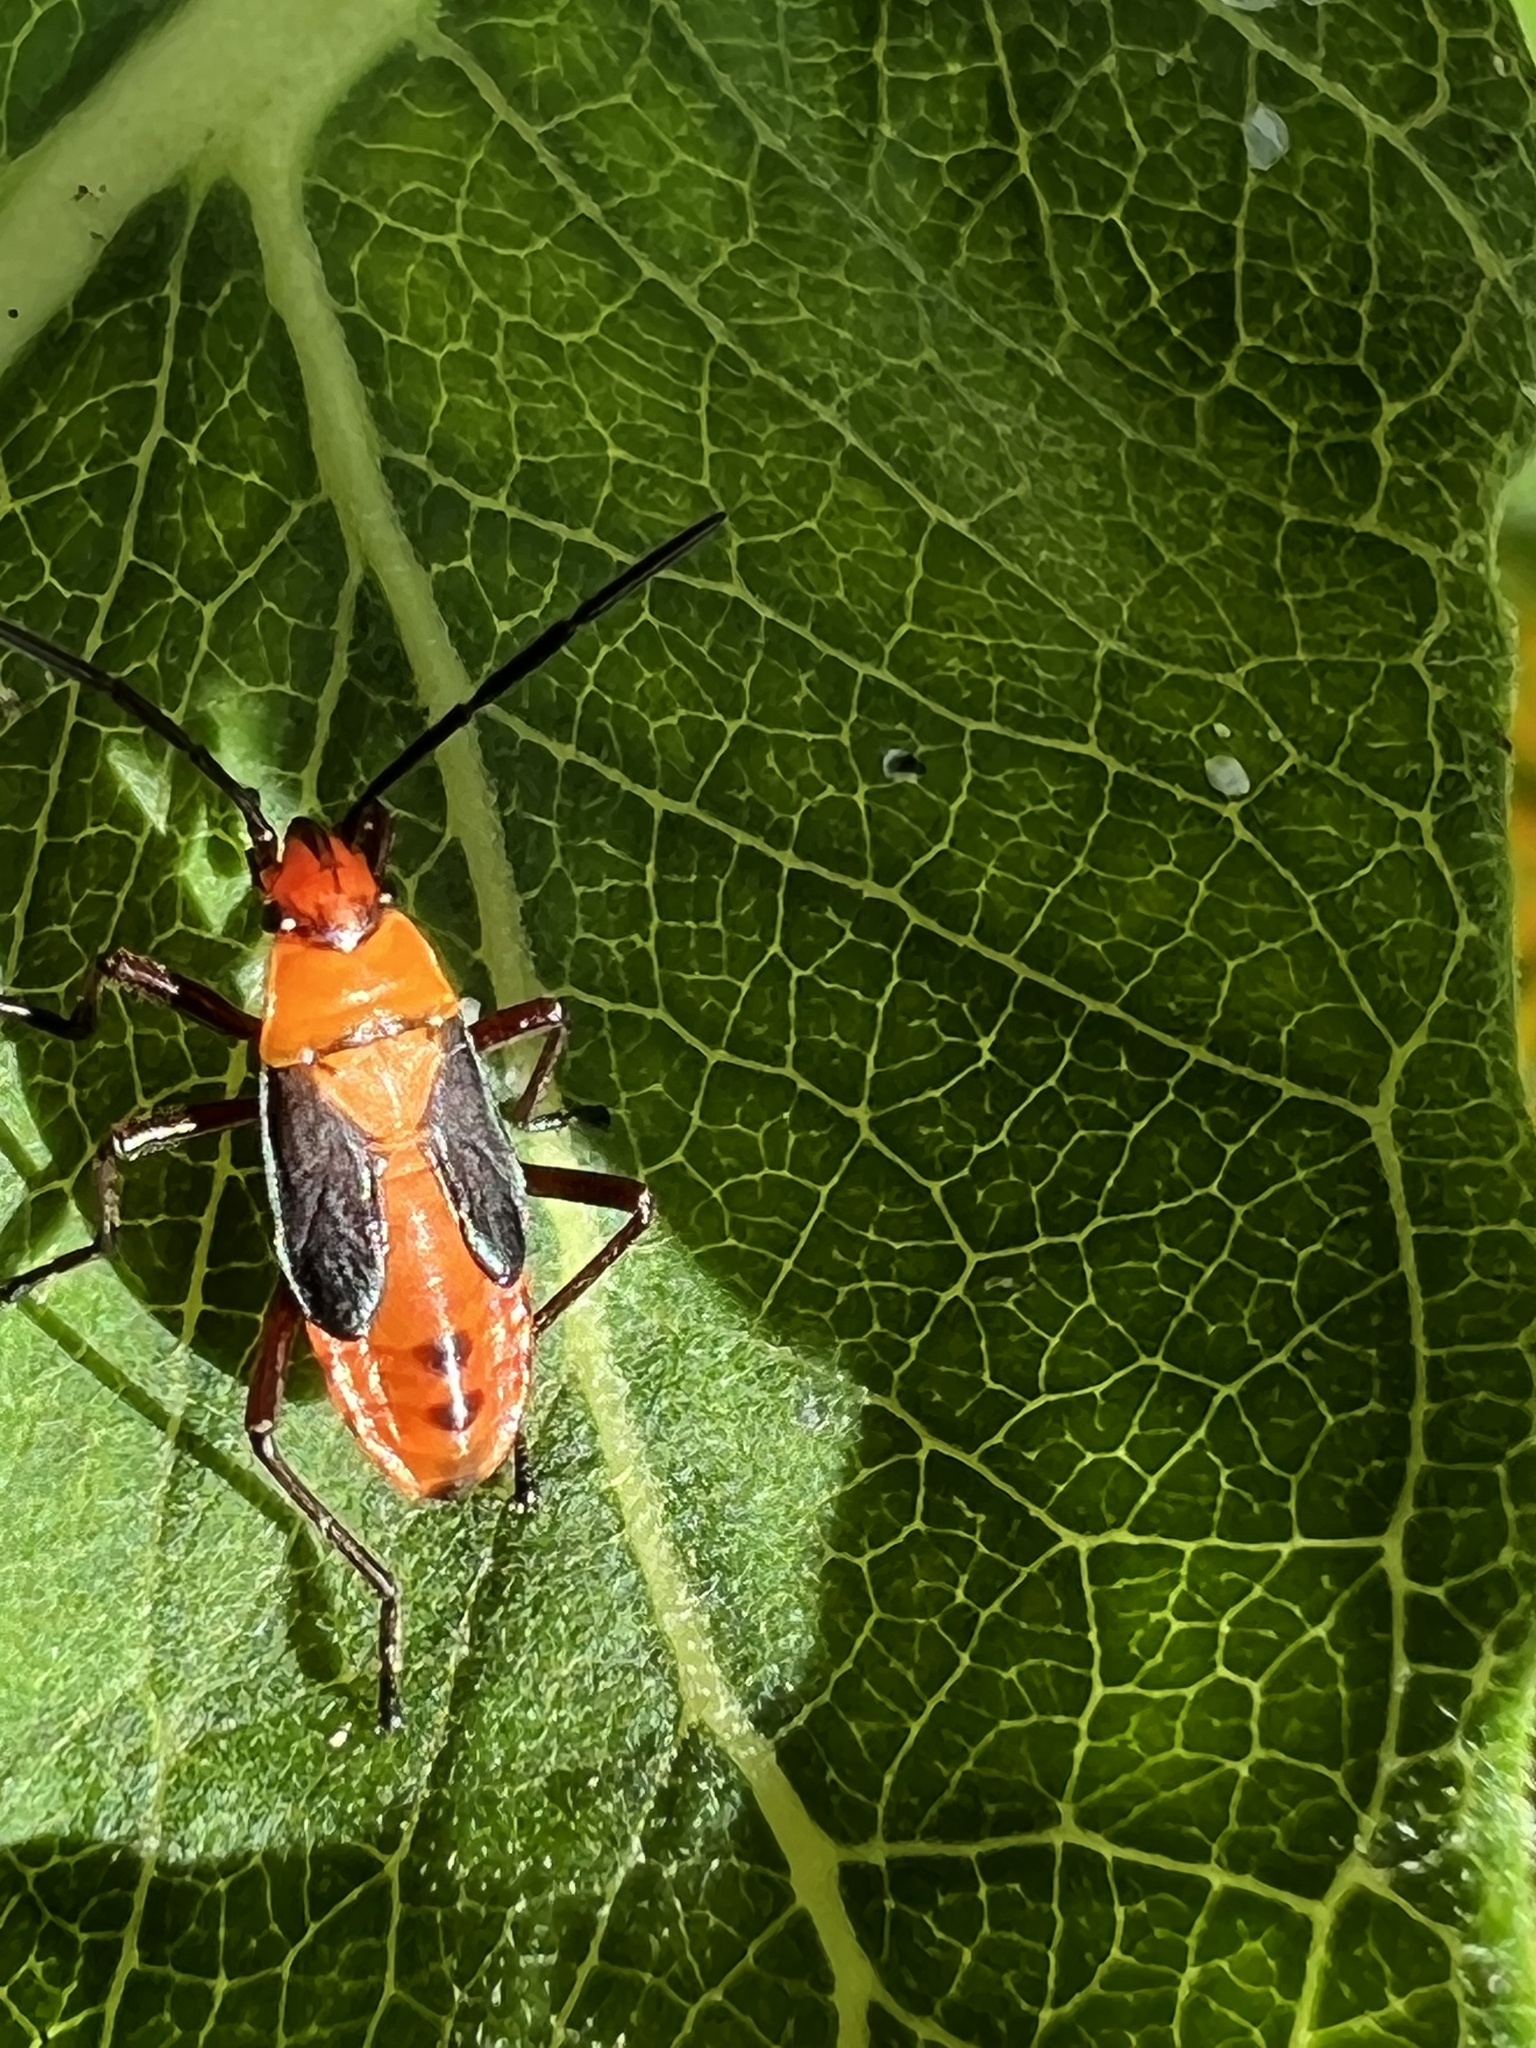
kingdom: Animalia
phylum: Arthropoda
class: Insecta
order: Hemiptera
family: Lygaeidae
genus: Oncopeltus
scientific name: Oncopeltus fasciatus
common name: Large milkweed bug
